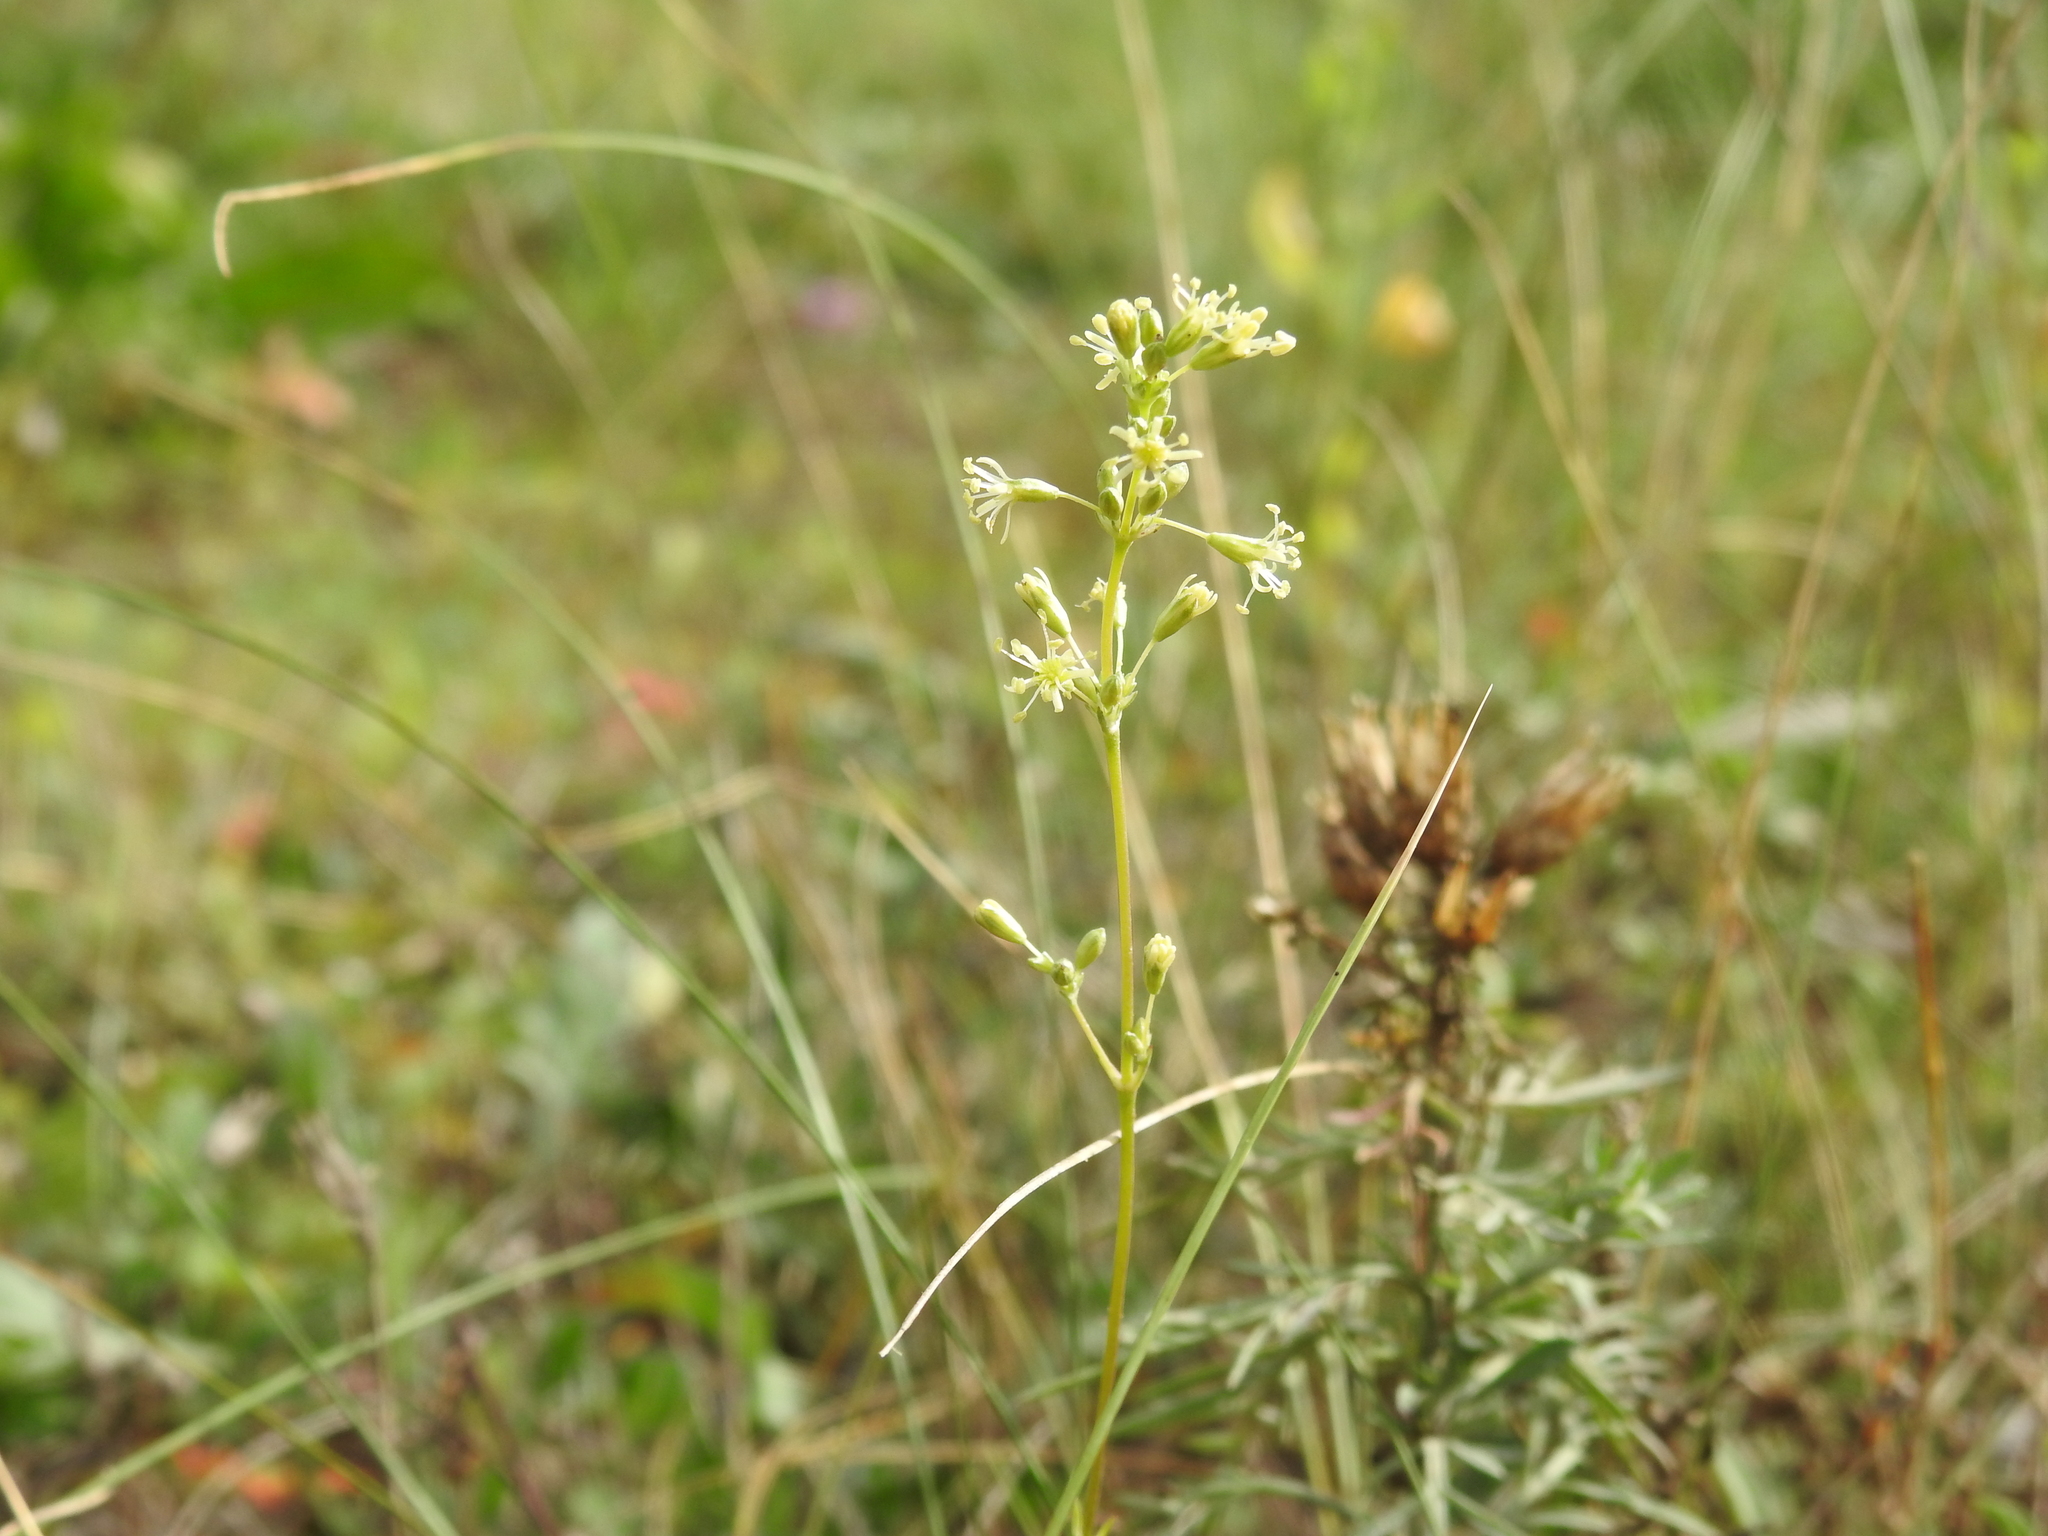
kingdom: Plantae
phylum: Tracheophyta
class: Magnoliopsida
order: Caryophyllales
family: Caryophyllaceae
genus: Silene
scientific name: Silene otites
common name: Spanish catchfly
